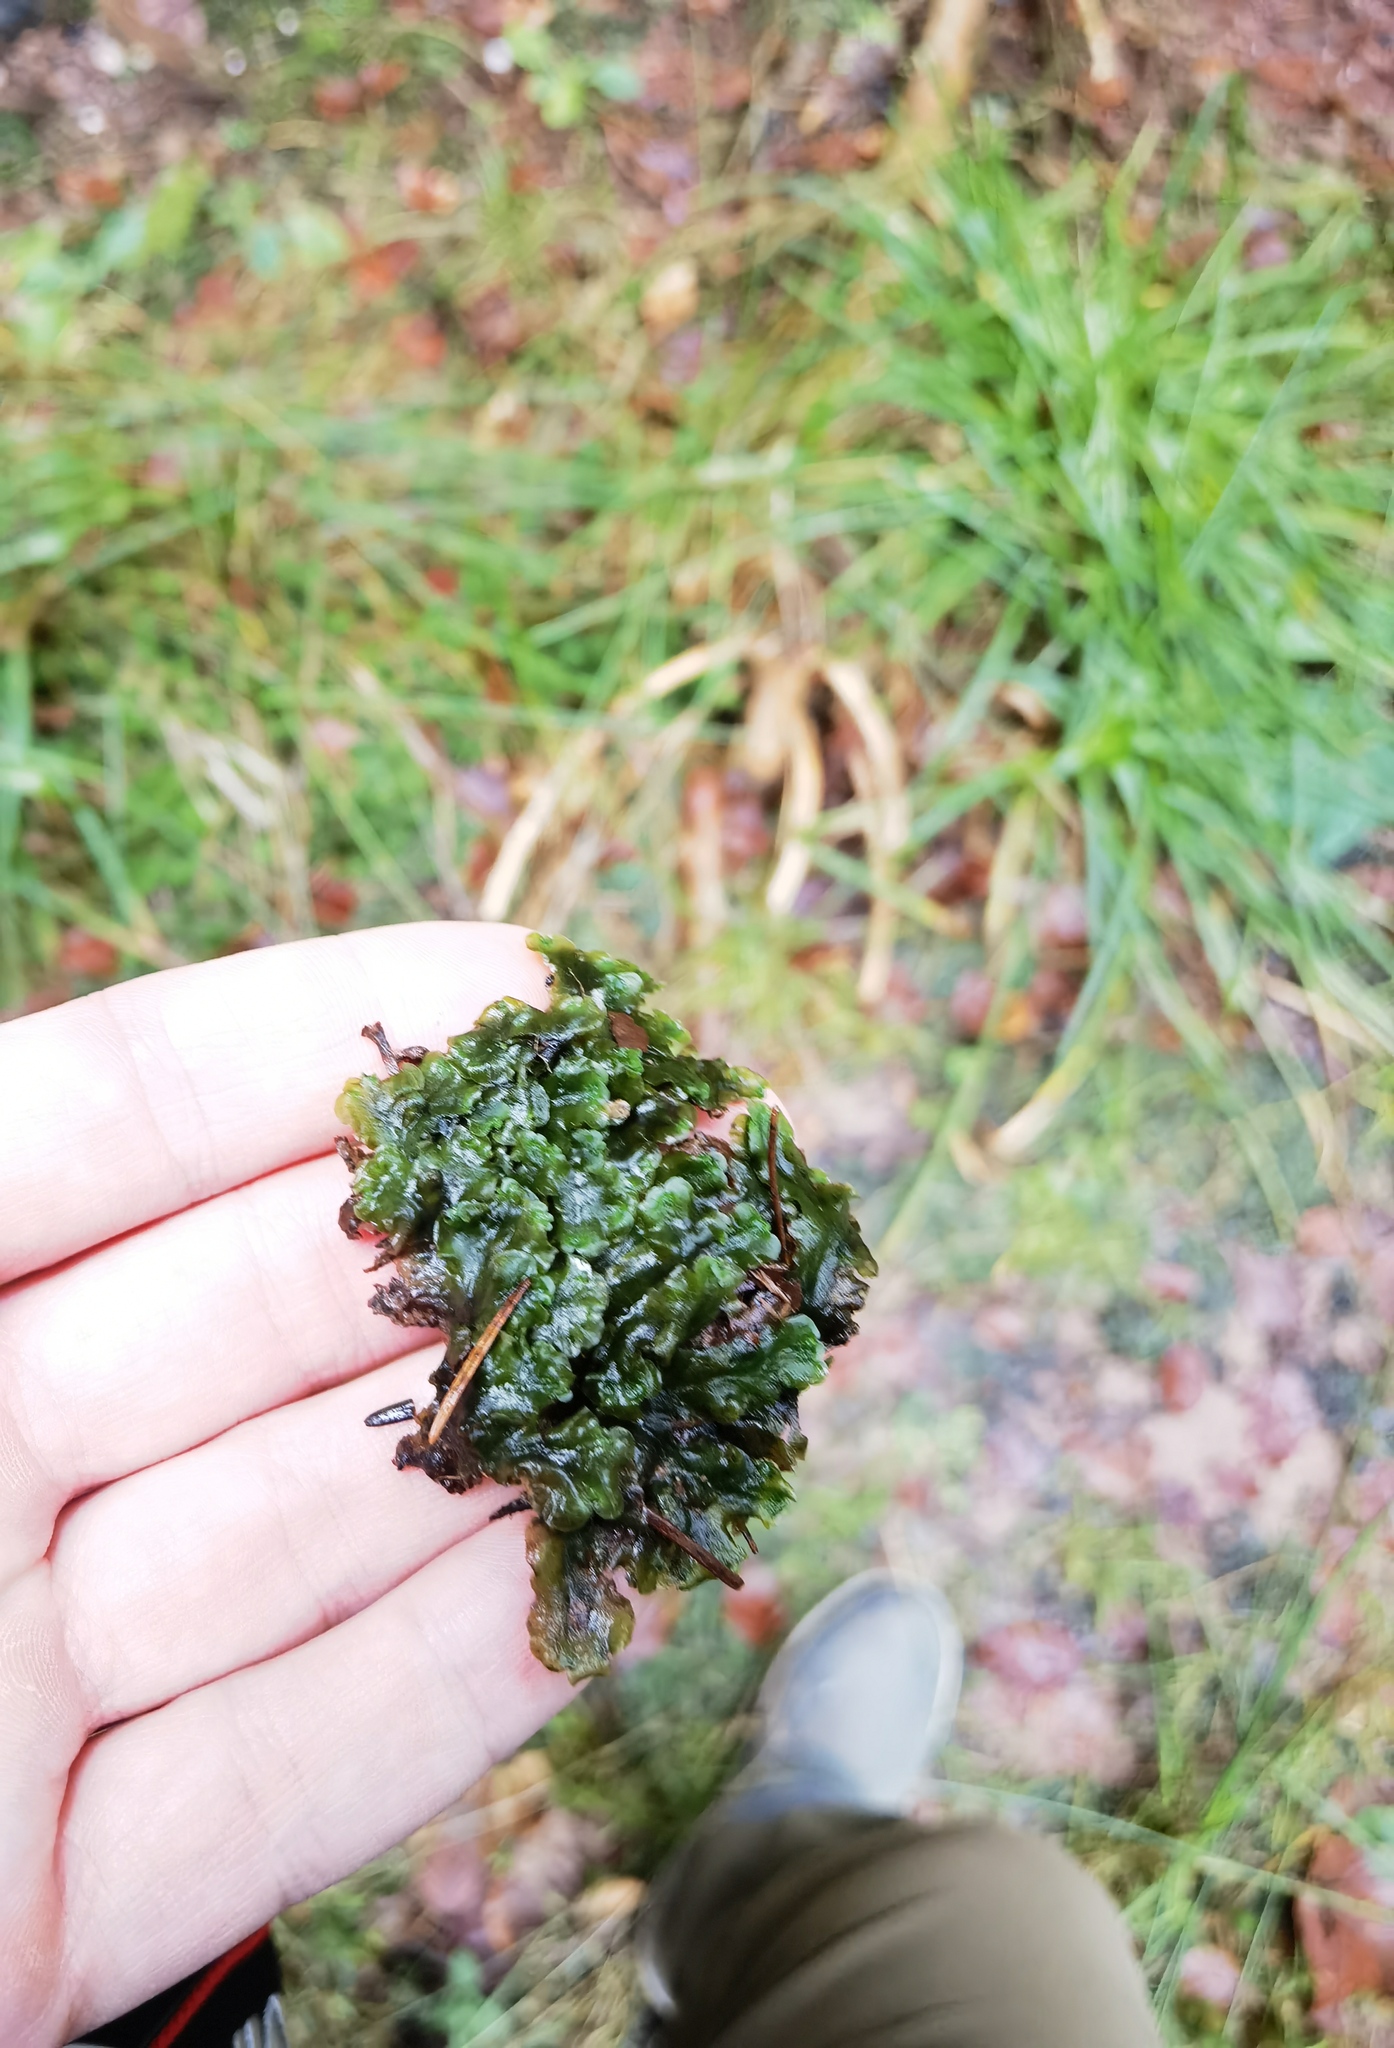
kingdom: Plantae
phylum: Marchantiophyta
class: Jungermanniopsida
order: Pelliales
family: Pelliaceae
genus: Pellia
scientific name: Pellia epiphylla
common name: Common pellia
